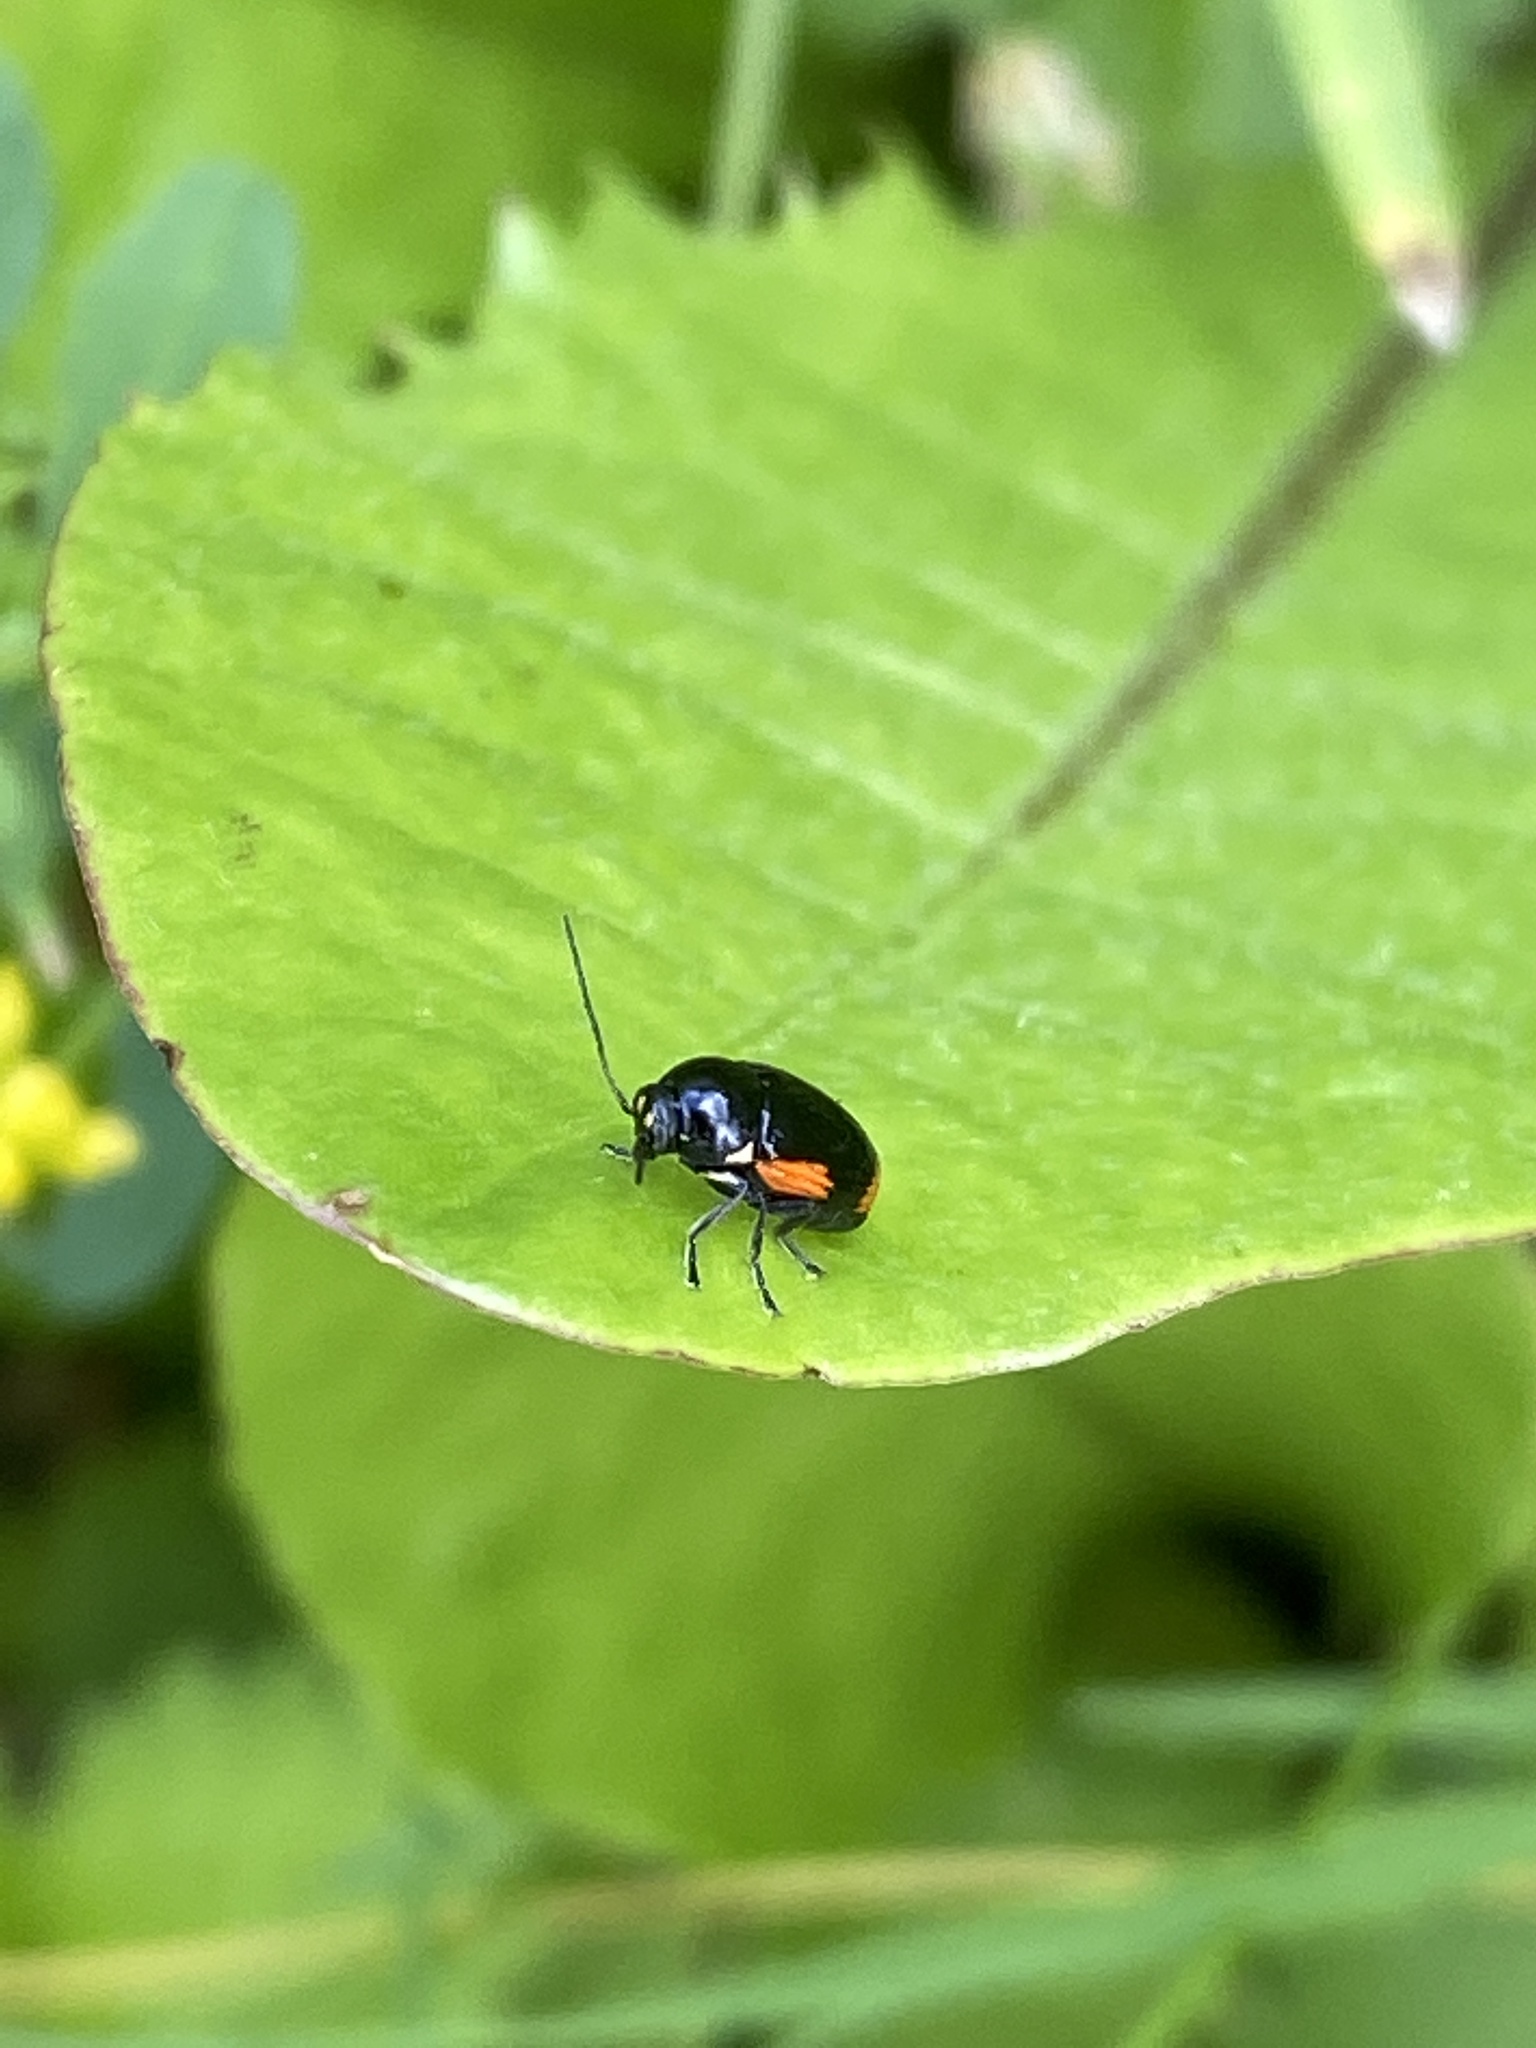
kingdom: Animalia
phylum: Arthropoda
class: Insecta
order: Coleoptera
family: Chrysomelidae
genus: Cryptocephalus
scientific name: Cryptocephalus moraei
